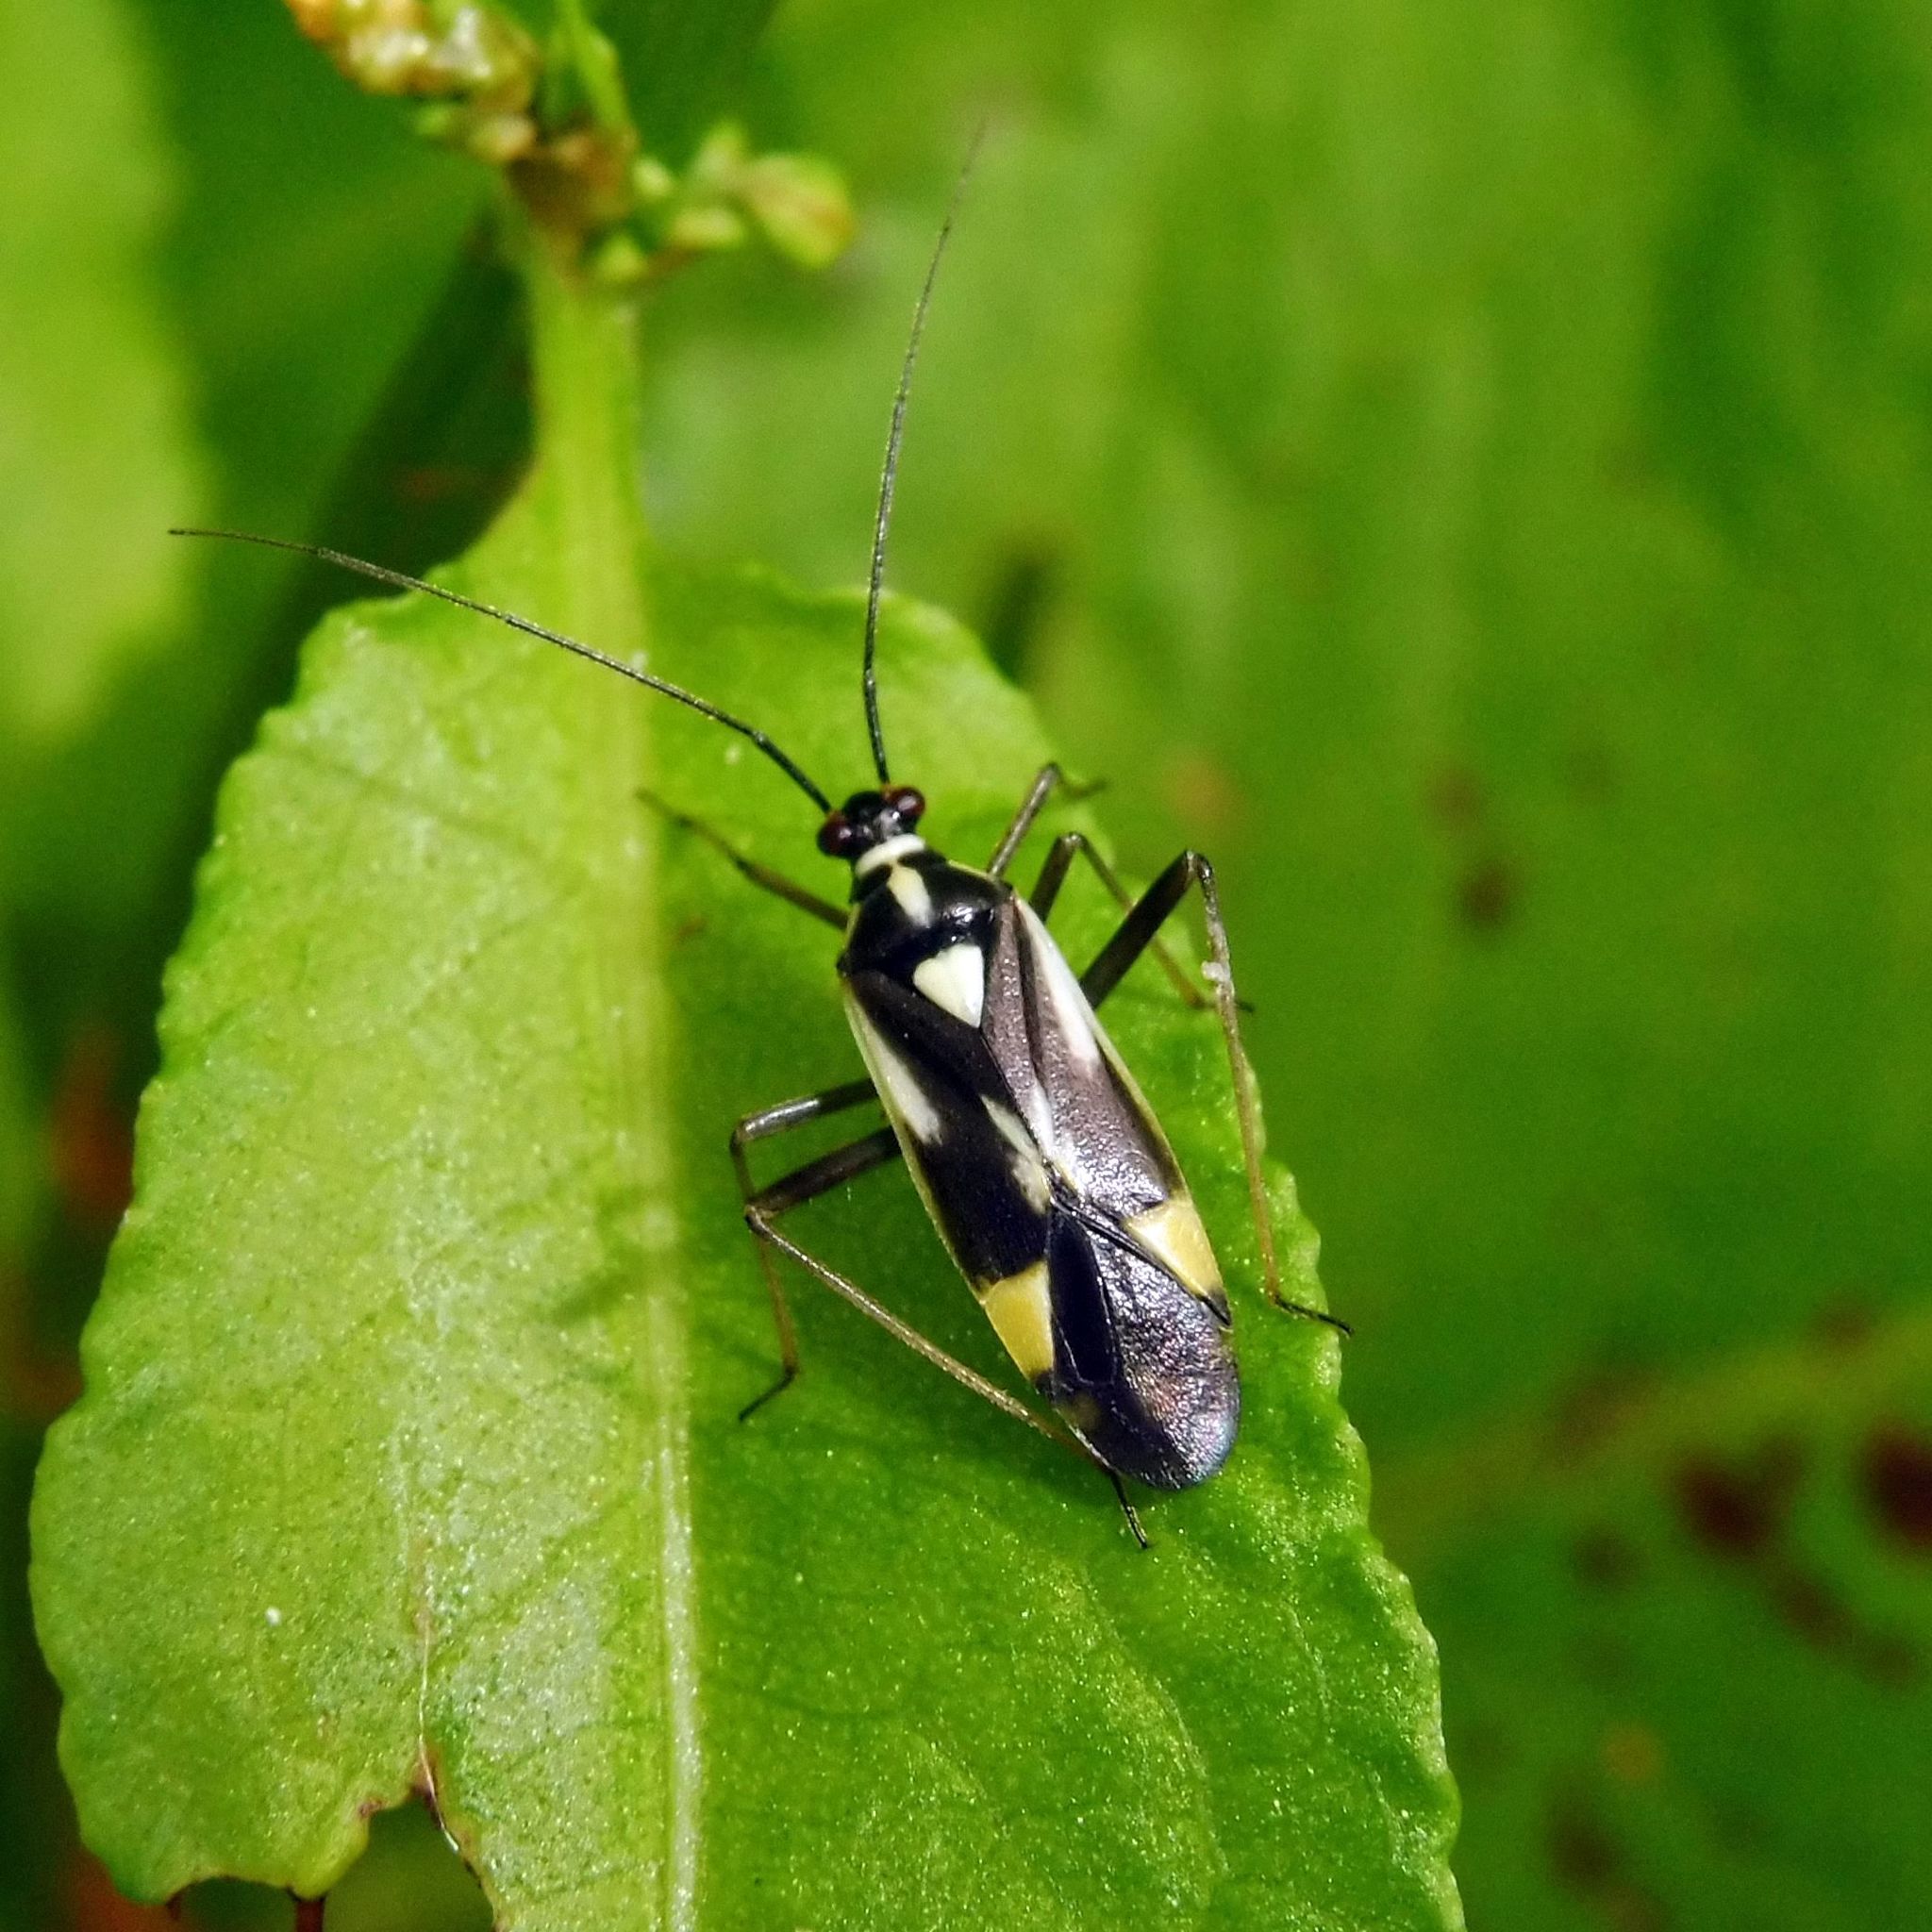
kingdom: Animalia
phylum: Arthropoda
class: Insecta
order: Hemiptera
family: Miridae
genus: Grypocoris
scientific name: Grypocoris stysi
